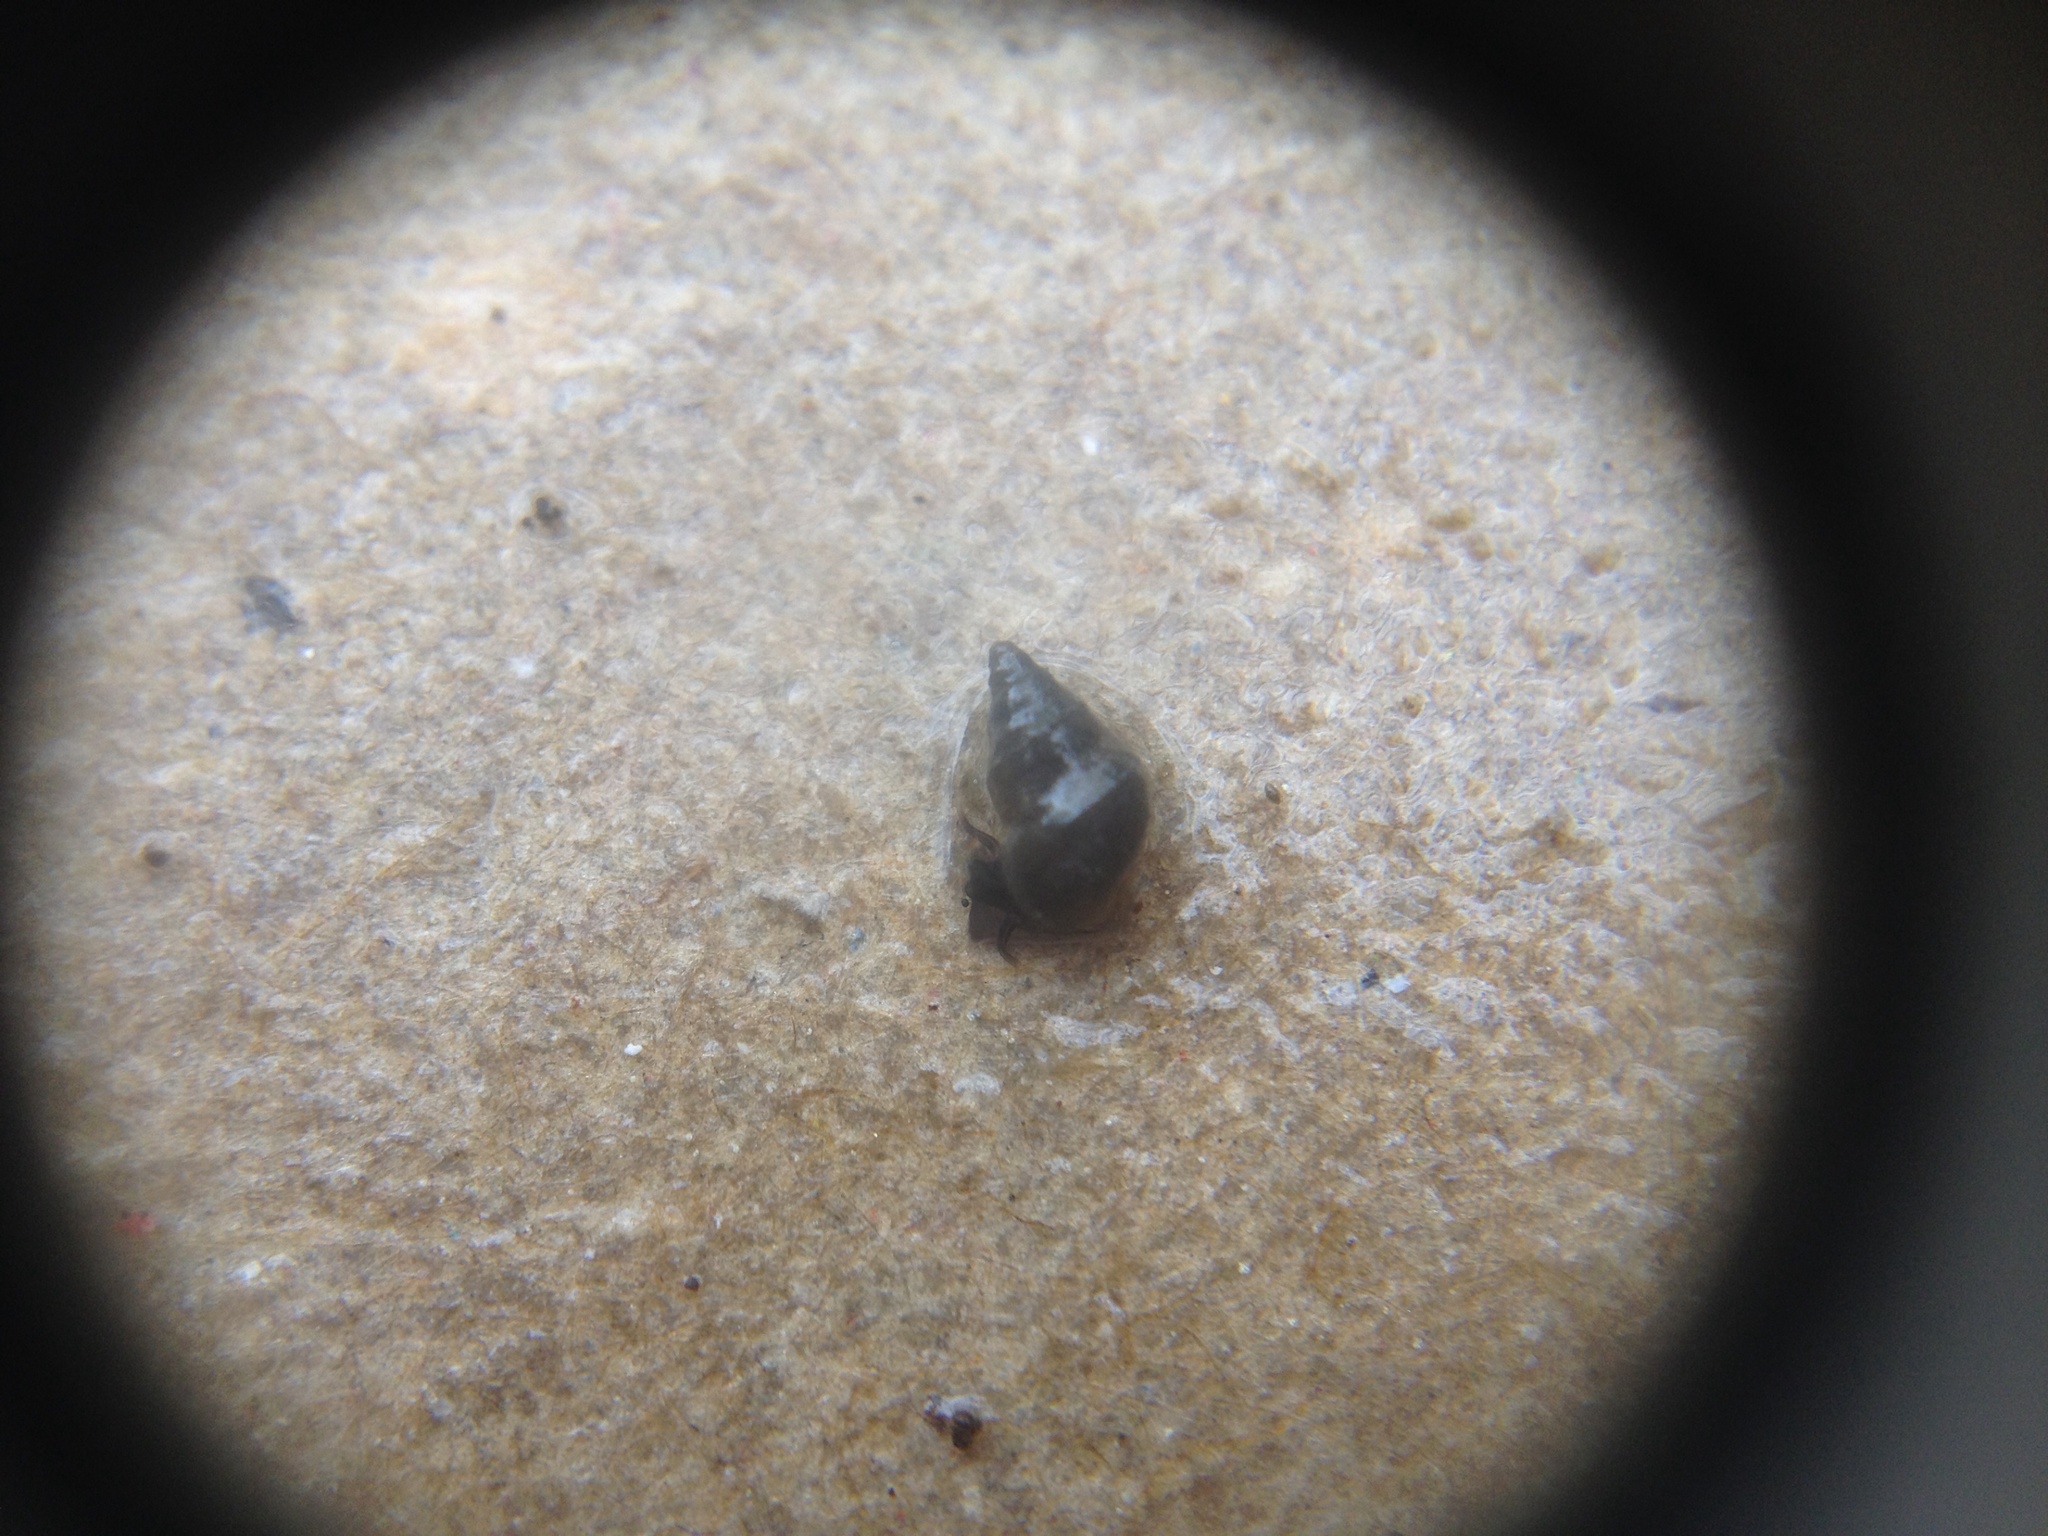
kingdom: Animalia
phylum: Mollusca
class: Gastropoda
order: Littorinimorpha
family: Tateidae
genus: Potamopyrgus
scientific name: Potamopyrgus antipodarum
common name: Jenkins' spire snail
